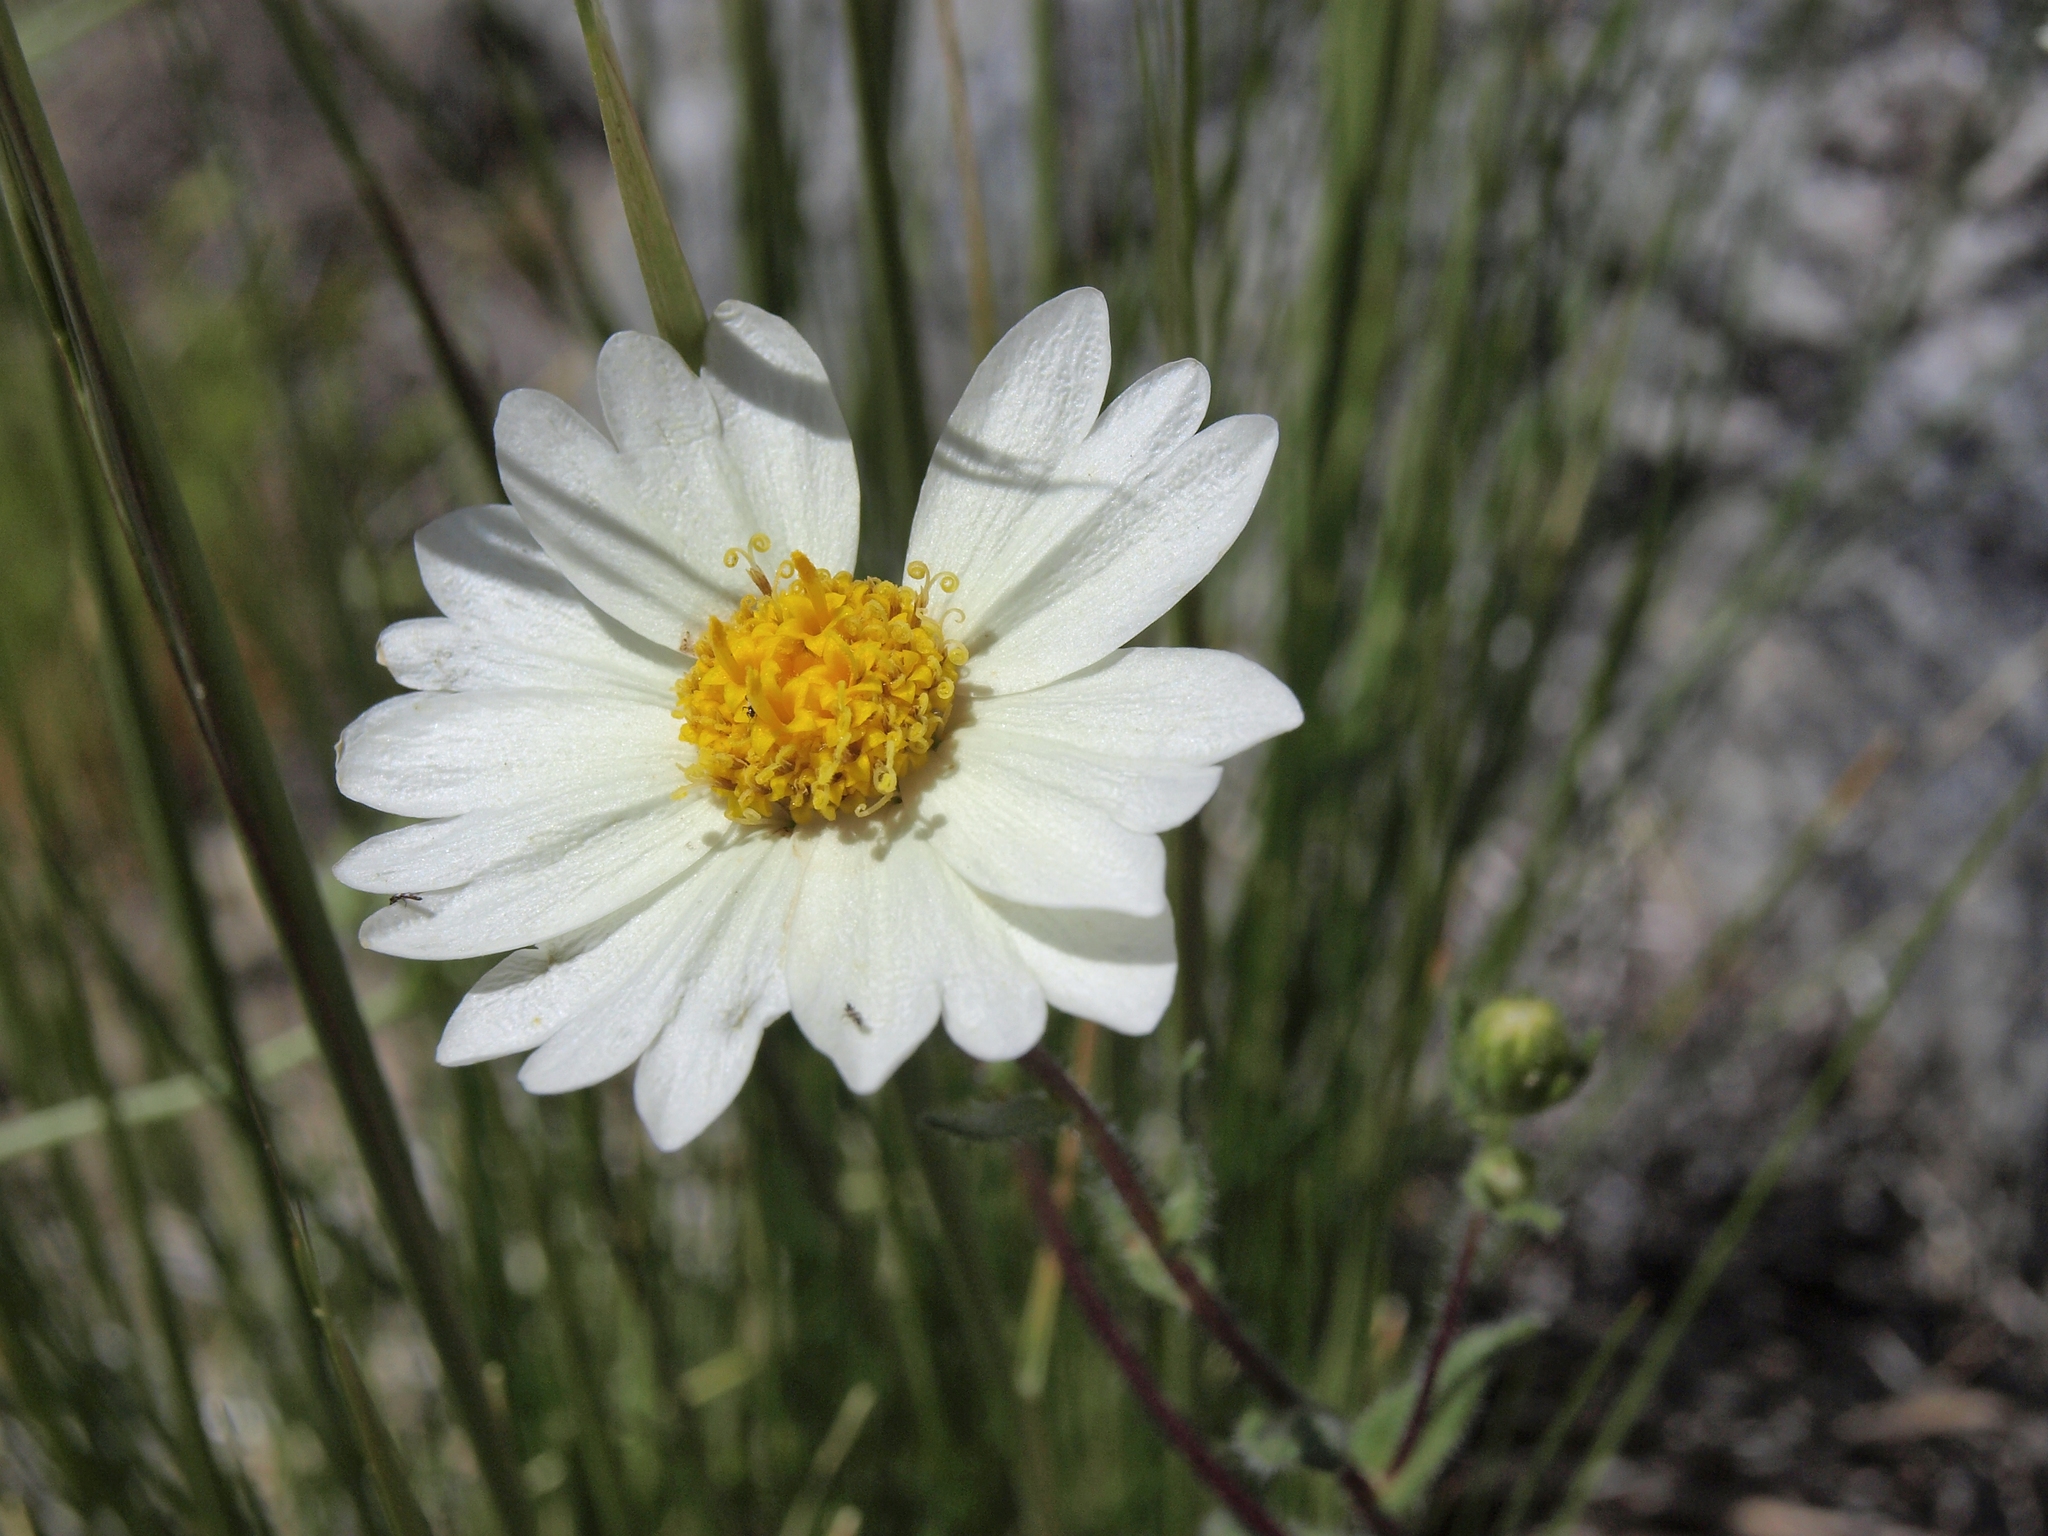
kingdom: Plantae
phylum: Tracheophyta
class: Magnoliopsida
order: Asterales
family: Asteraceae
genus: Layia
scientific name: Layia glandulosa
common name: White layia
